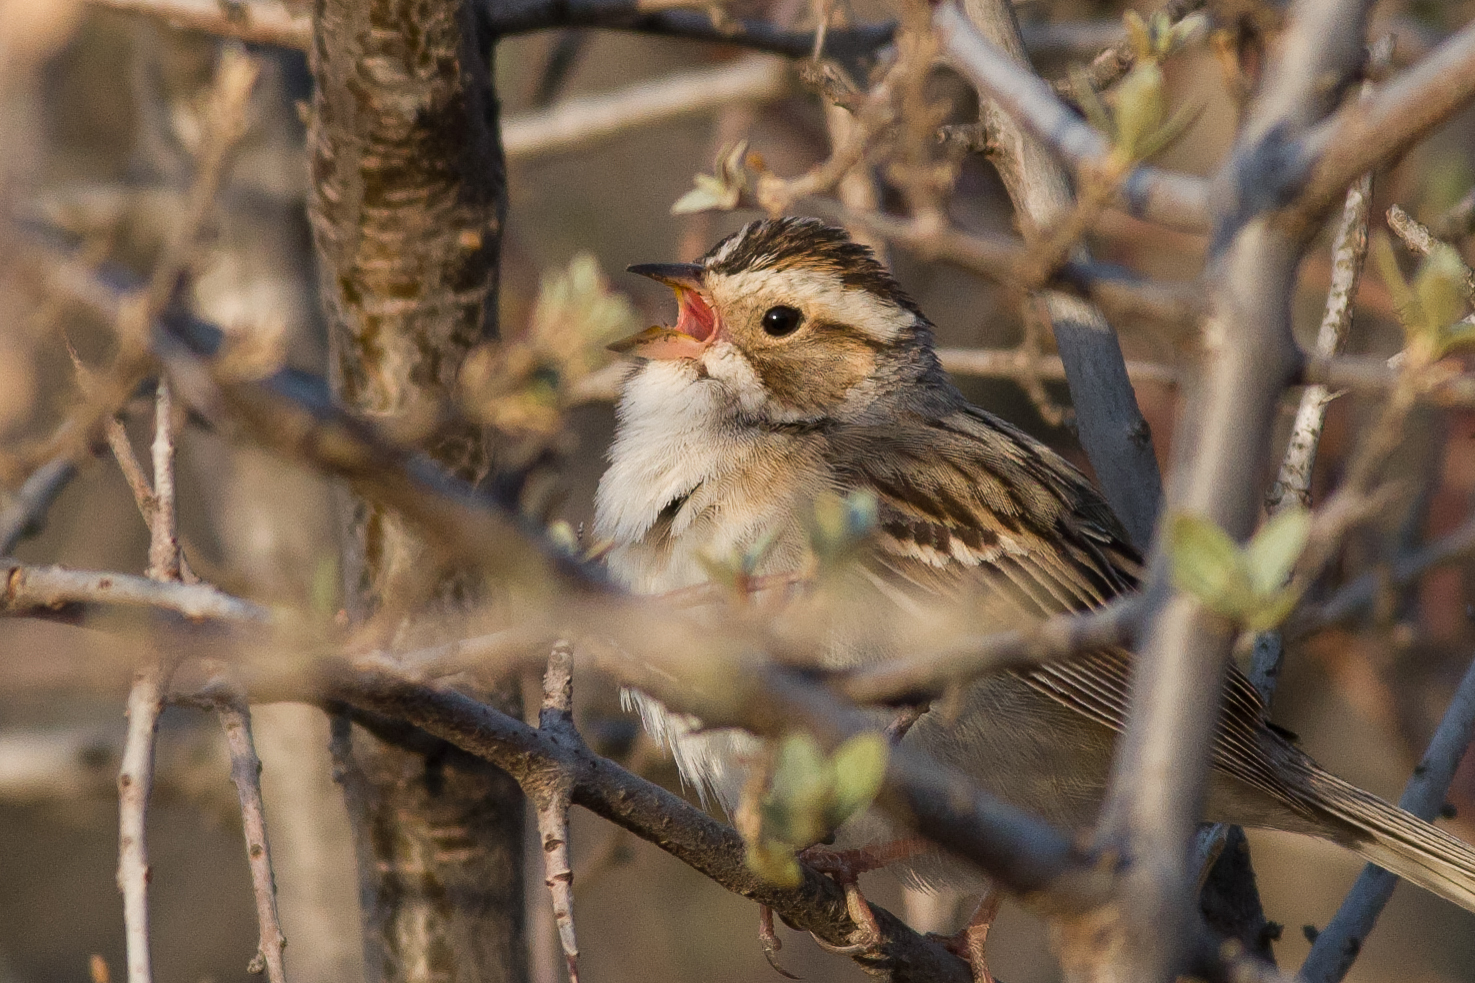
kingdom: Animalia
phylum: Chordata
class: Aves
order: Passeriformes
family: Passerellidae
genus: Spizella
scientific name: Spizella pallida
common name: Clay-colored sparrow
